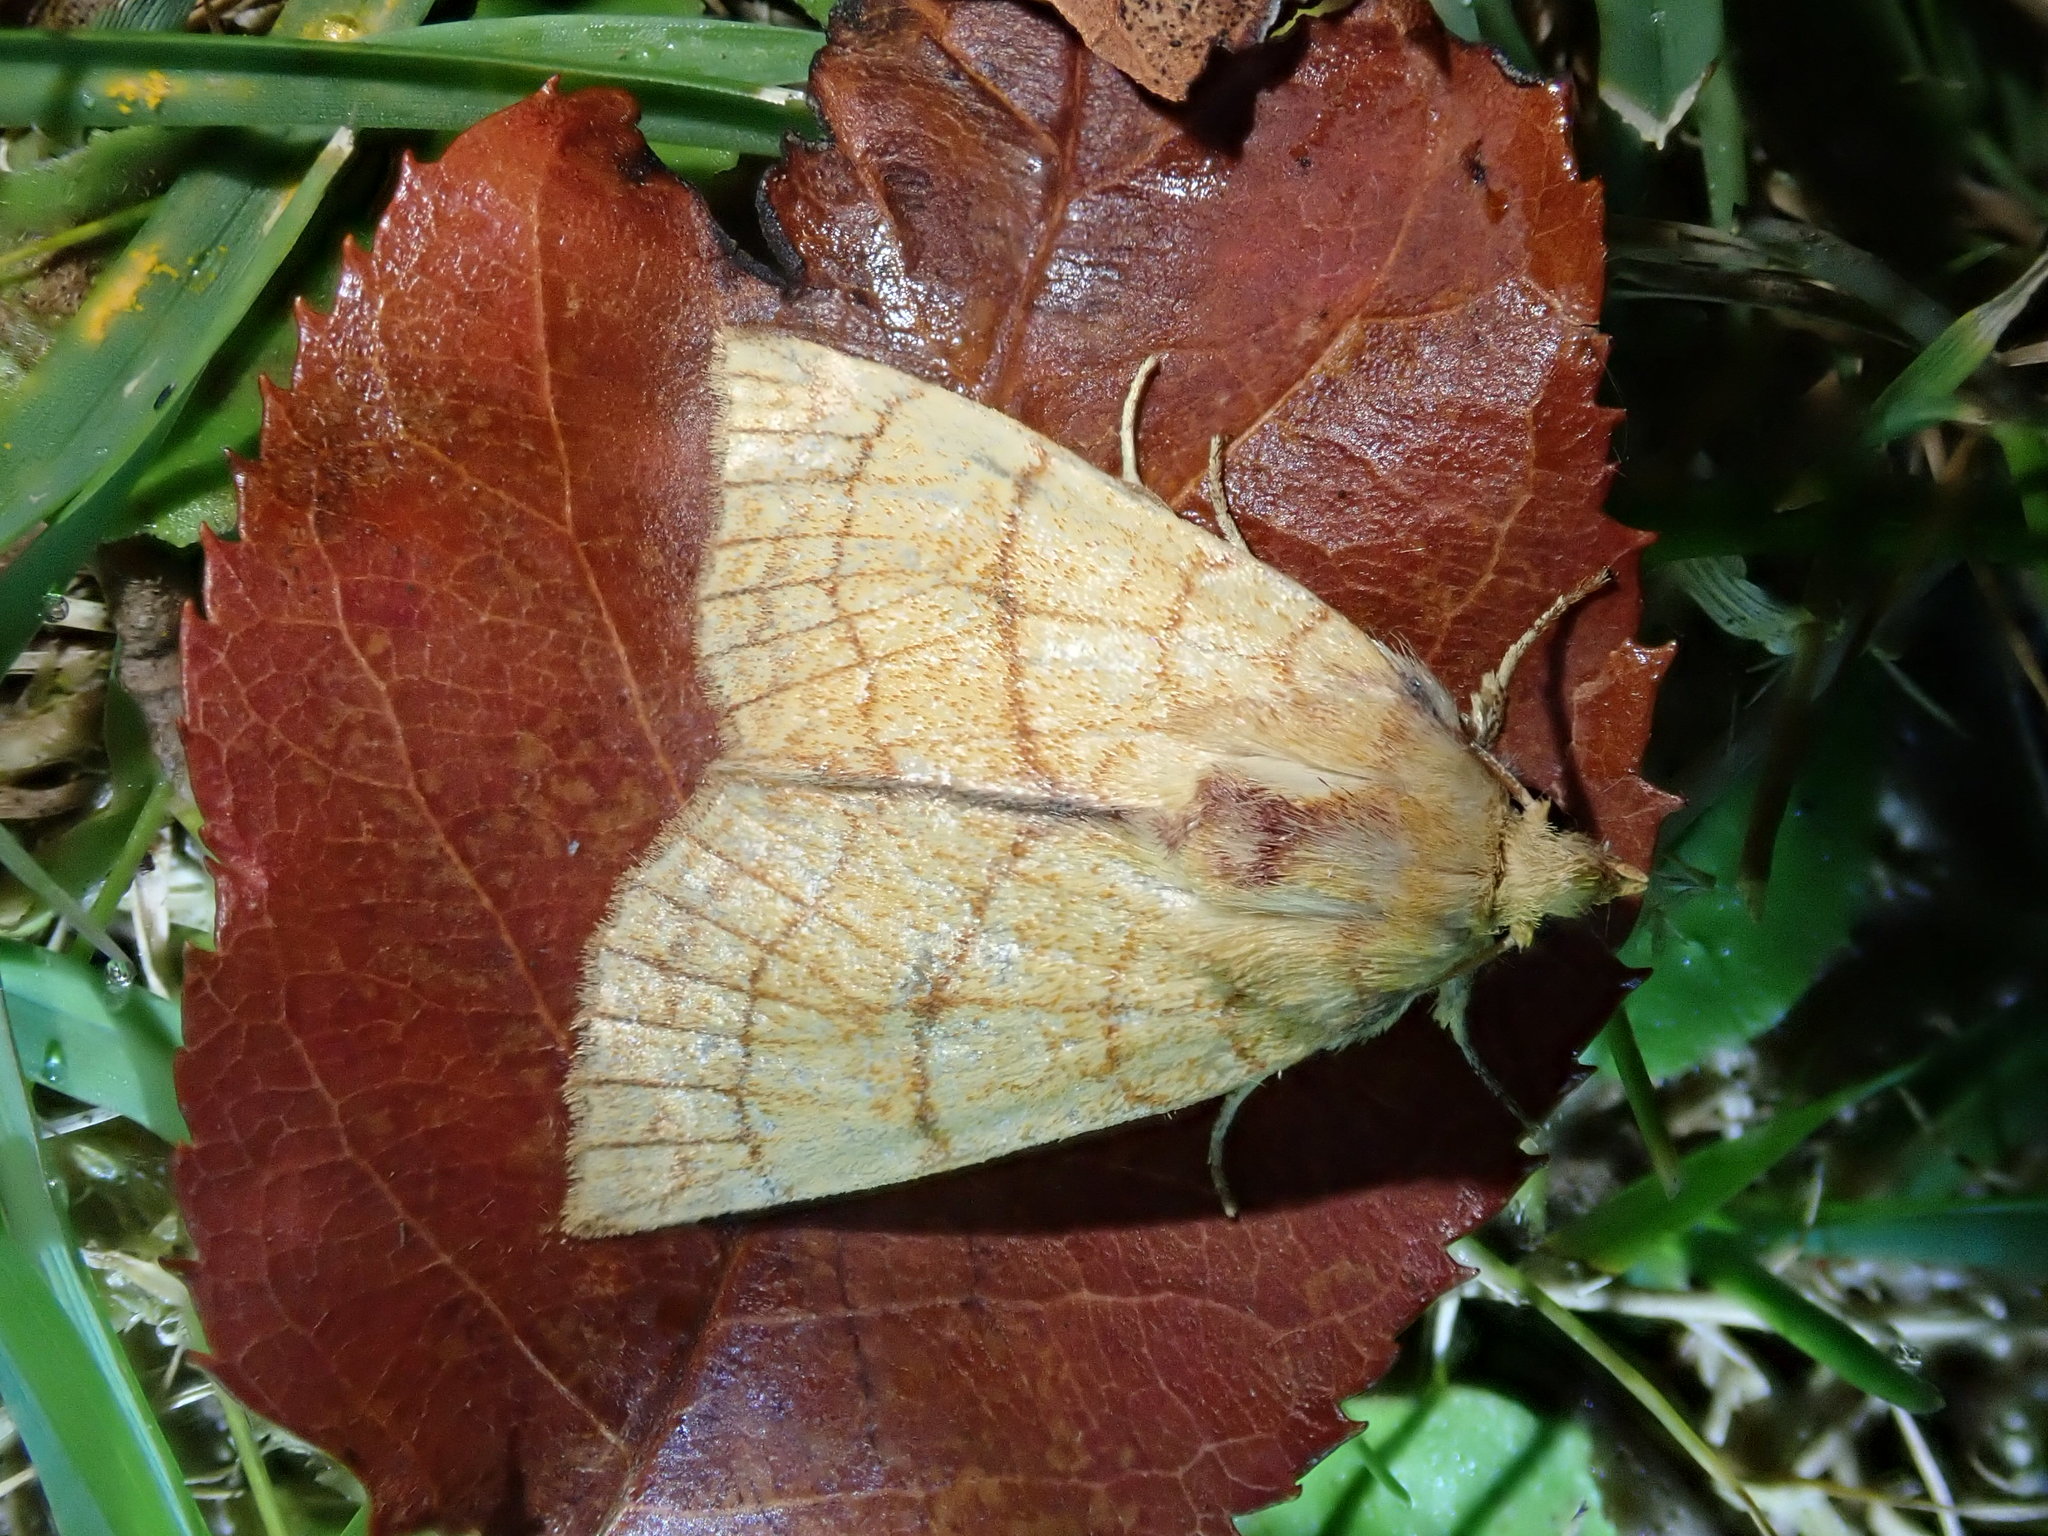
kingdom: Animalia
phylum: Arthropoda
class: Insecta
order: Lepidoptera
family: Noctuidae
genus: Tiliacea
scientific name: Tiliacea citrago
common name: Orange sallow
